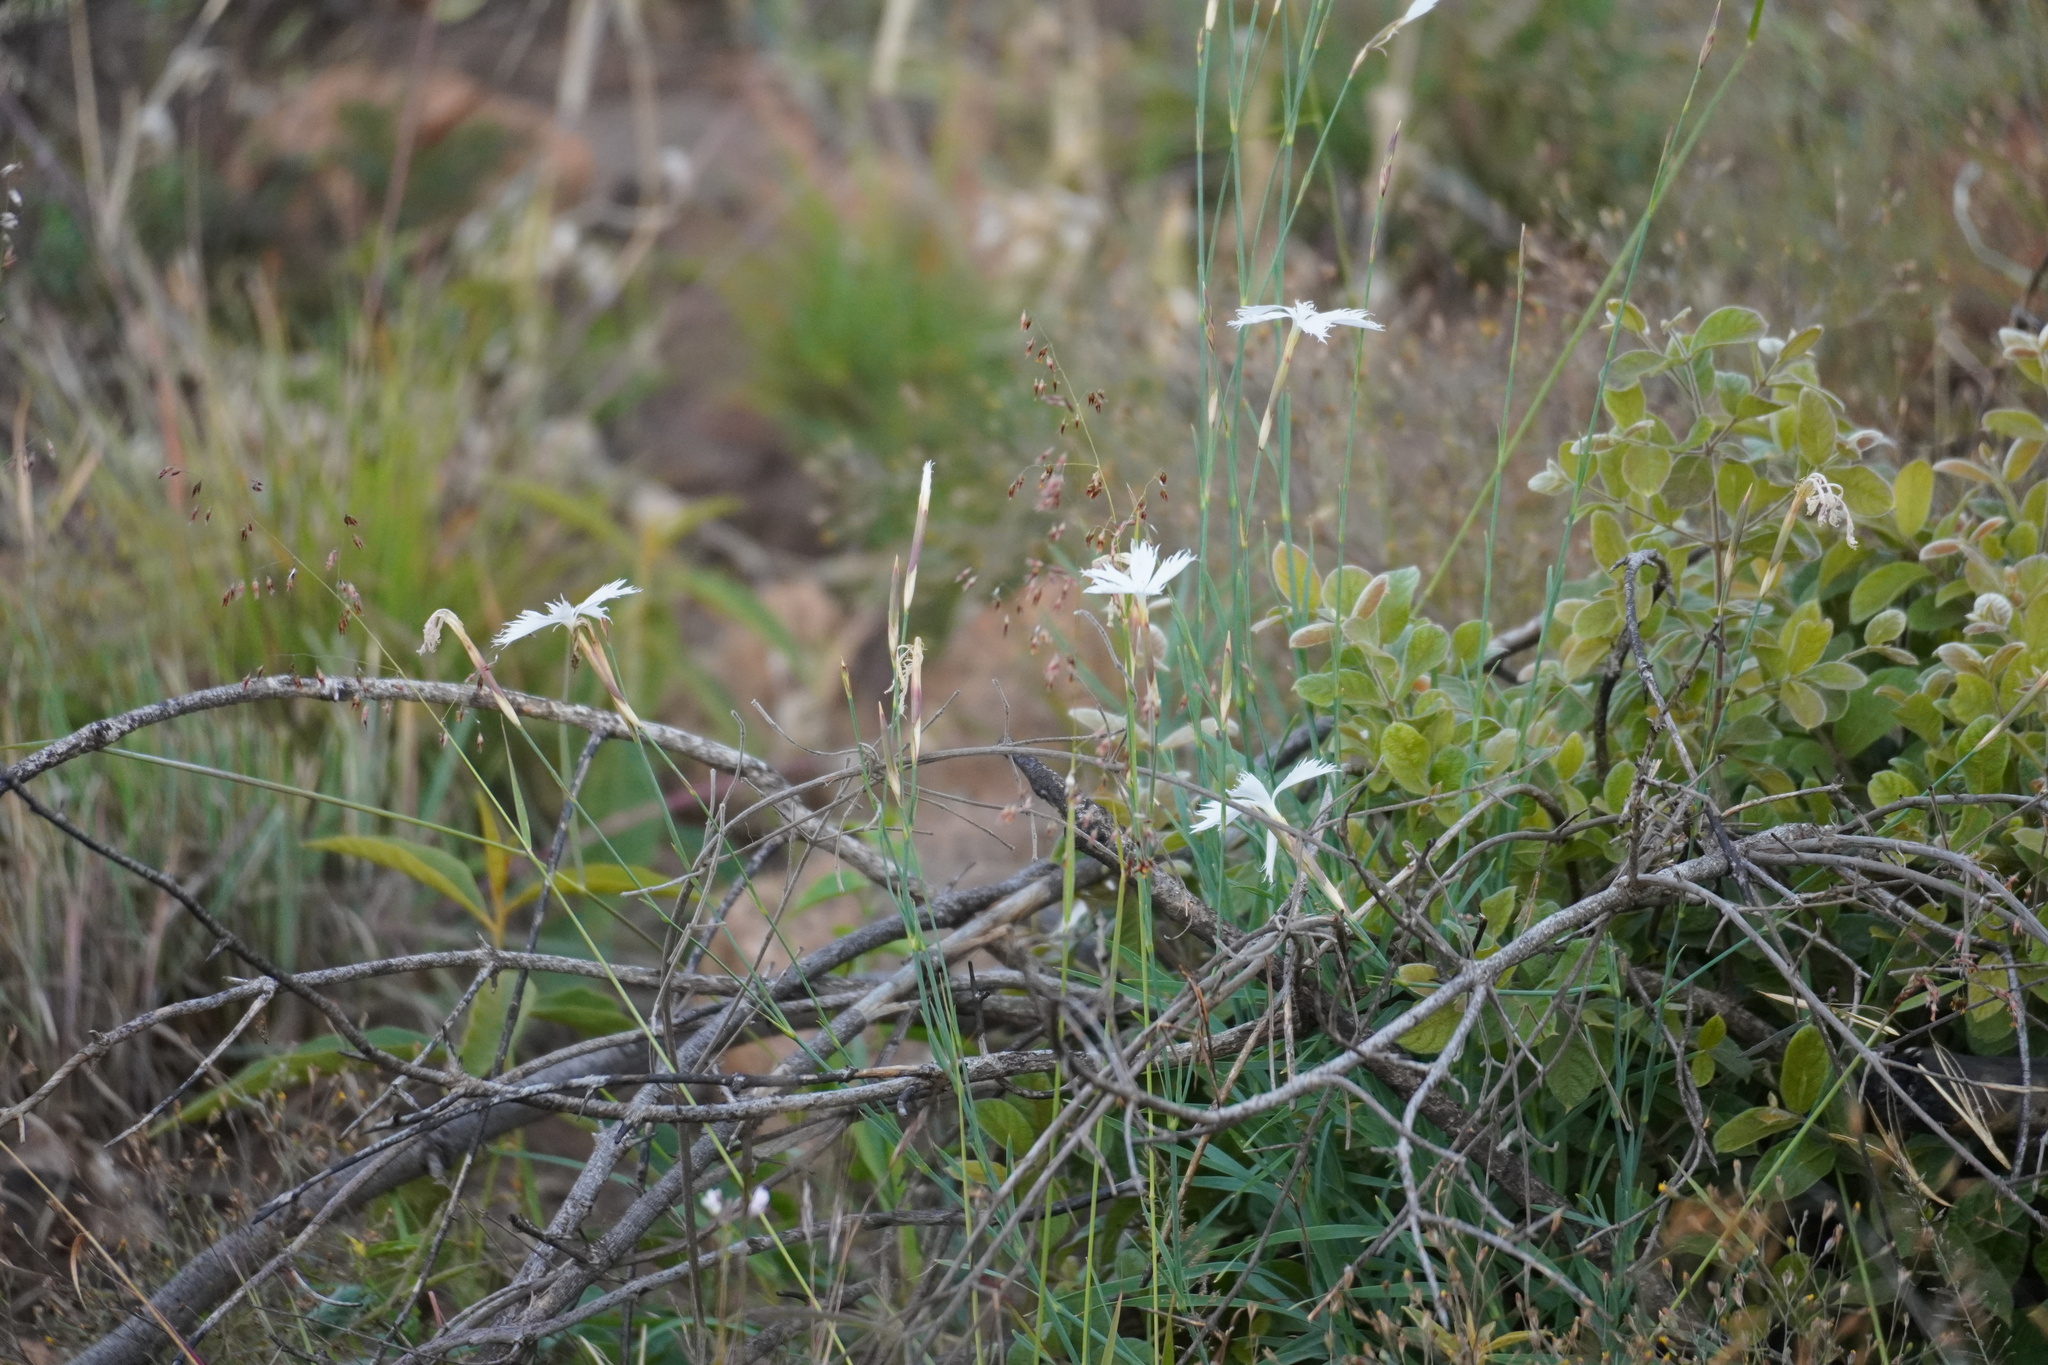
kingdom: Plantae
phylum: Tracheophyta
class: Magnoliopsida
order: Caryophyllales
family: Caryophyllaceae
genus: Dianthus
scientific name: Dianthus mooiensis
